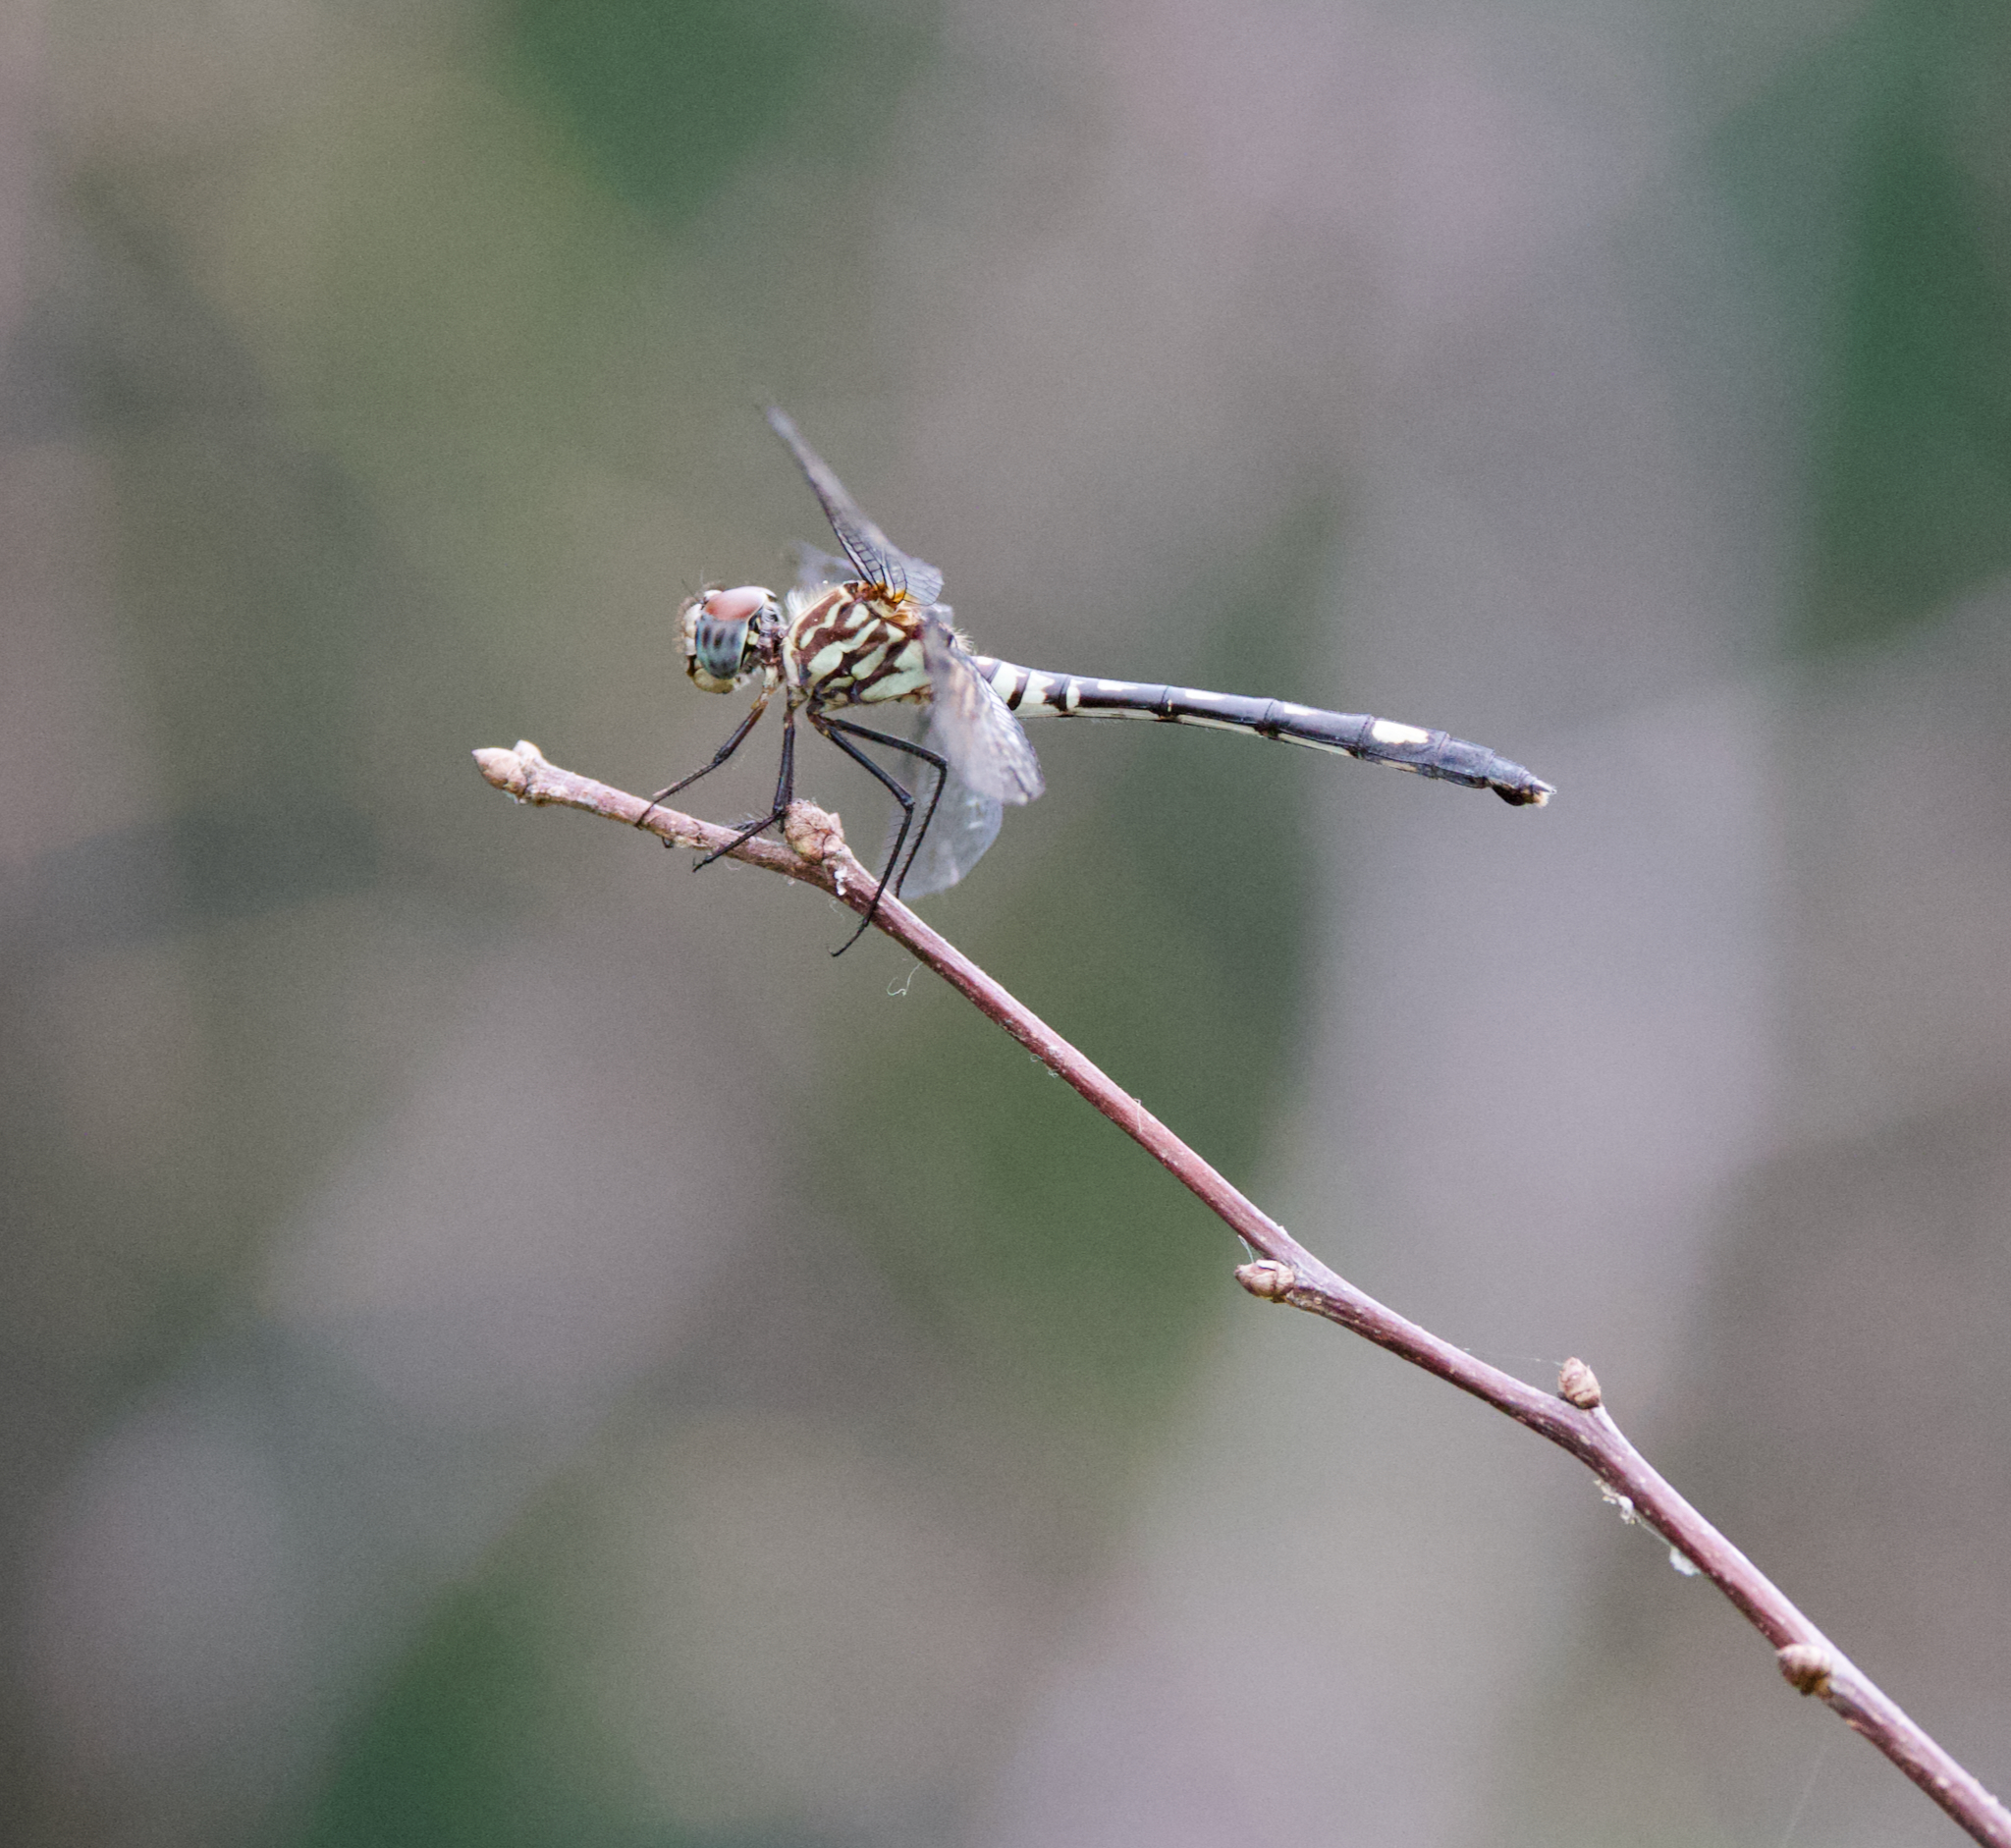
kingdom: Animalia
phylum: Arthropoda
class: Insecta
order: Odonata
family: Libellulidae
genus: Dythemis
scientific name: Dythemis velox
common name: Swift setwing
